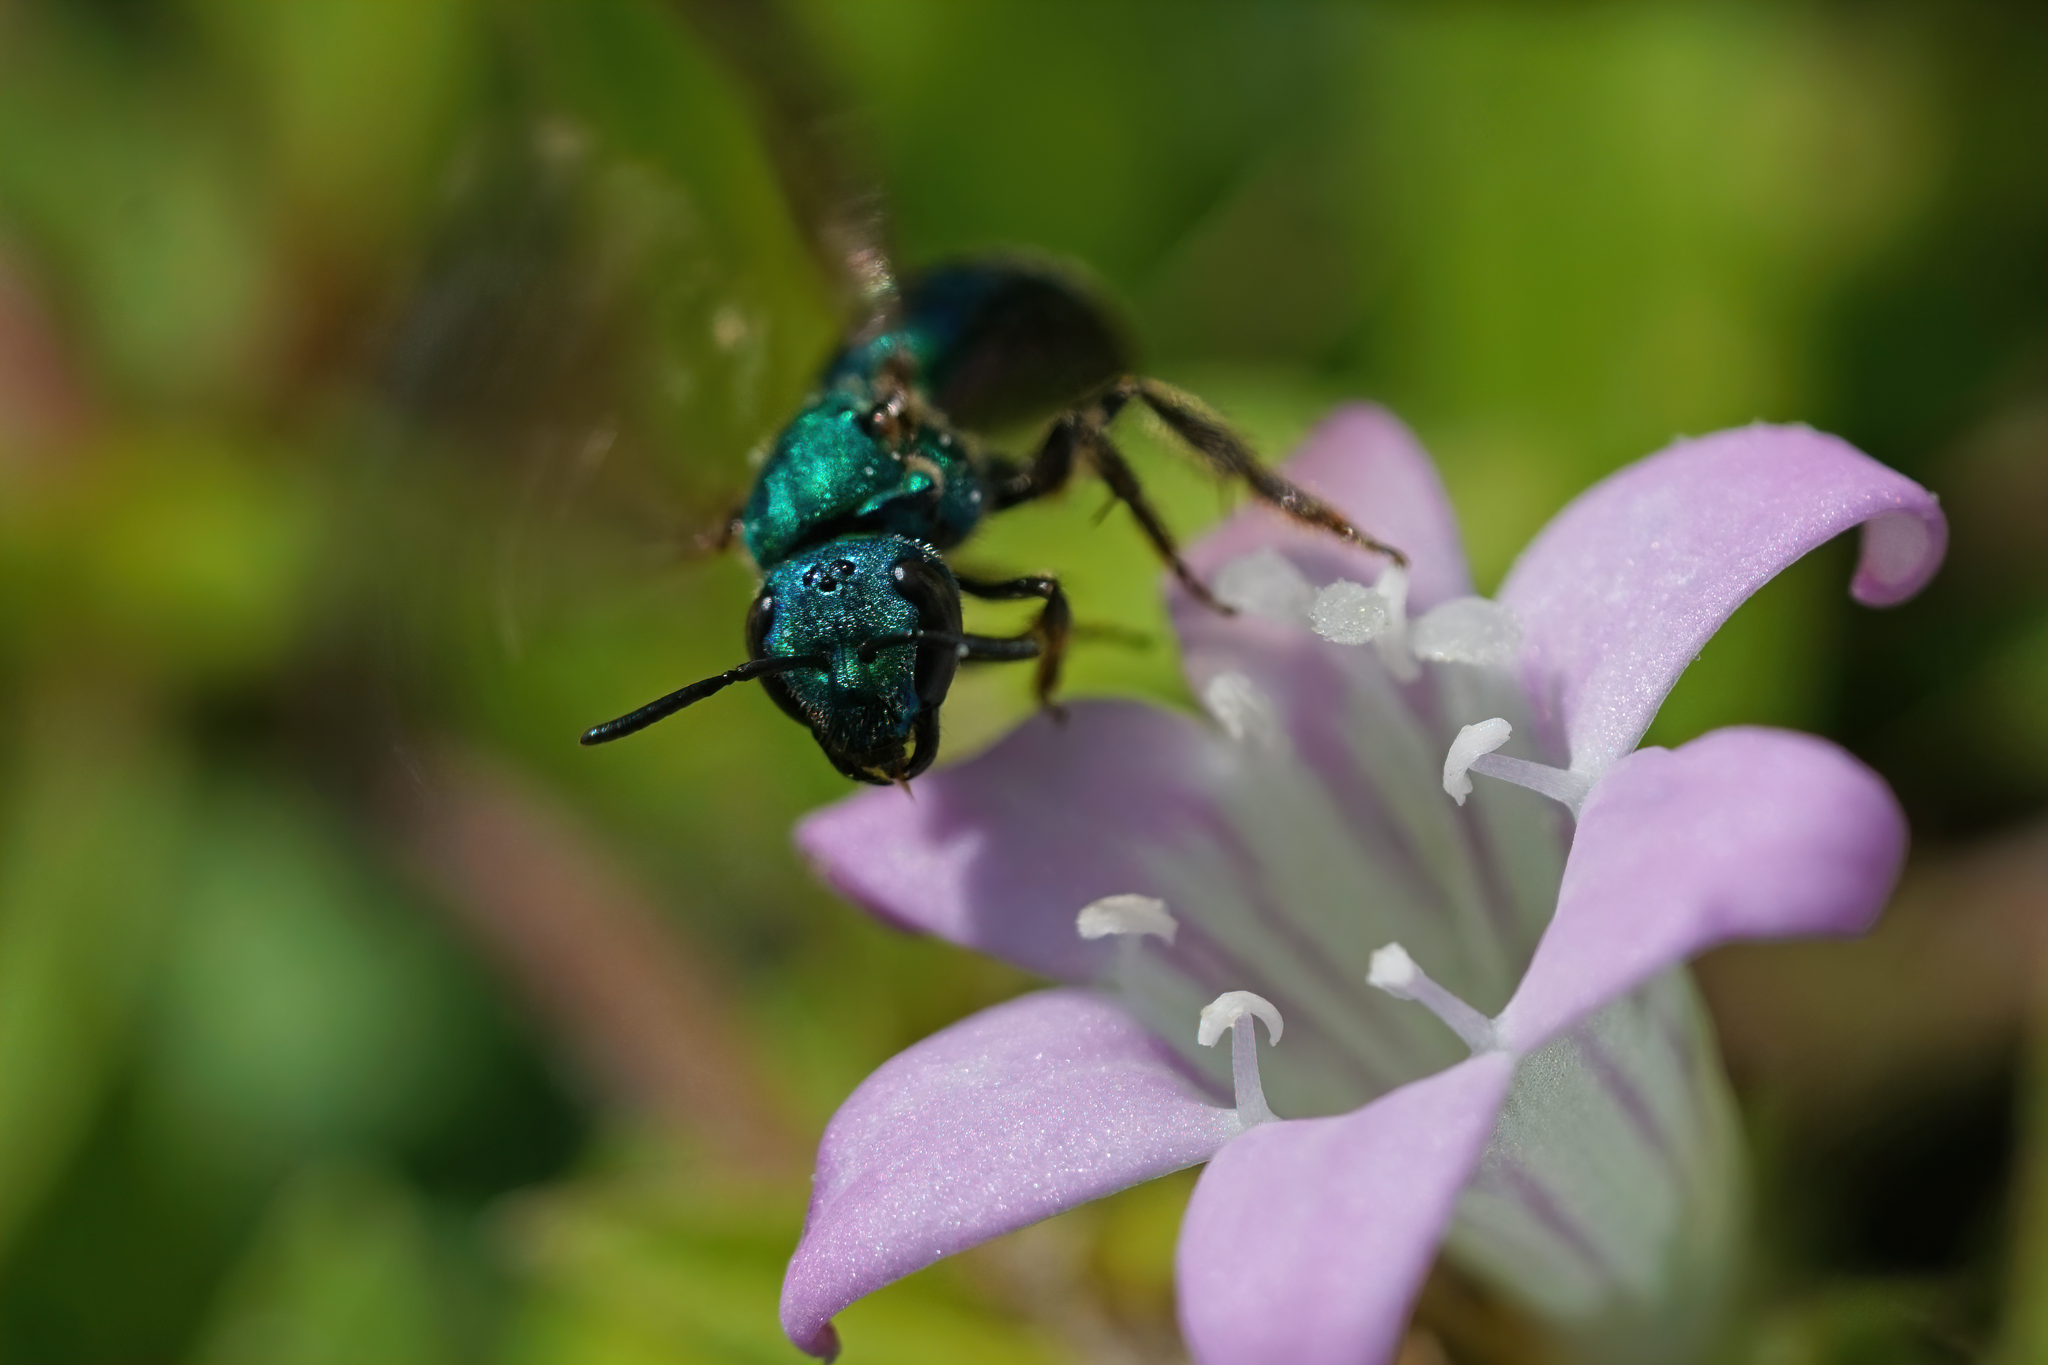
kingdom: Animalia
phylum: Arthropoda
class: Insecta
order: Hymenoptera
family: Halictidae
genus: Augochlora
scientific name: Augochlora pura
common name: Pure green sweat bee
